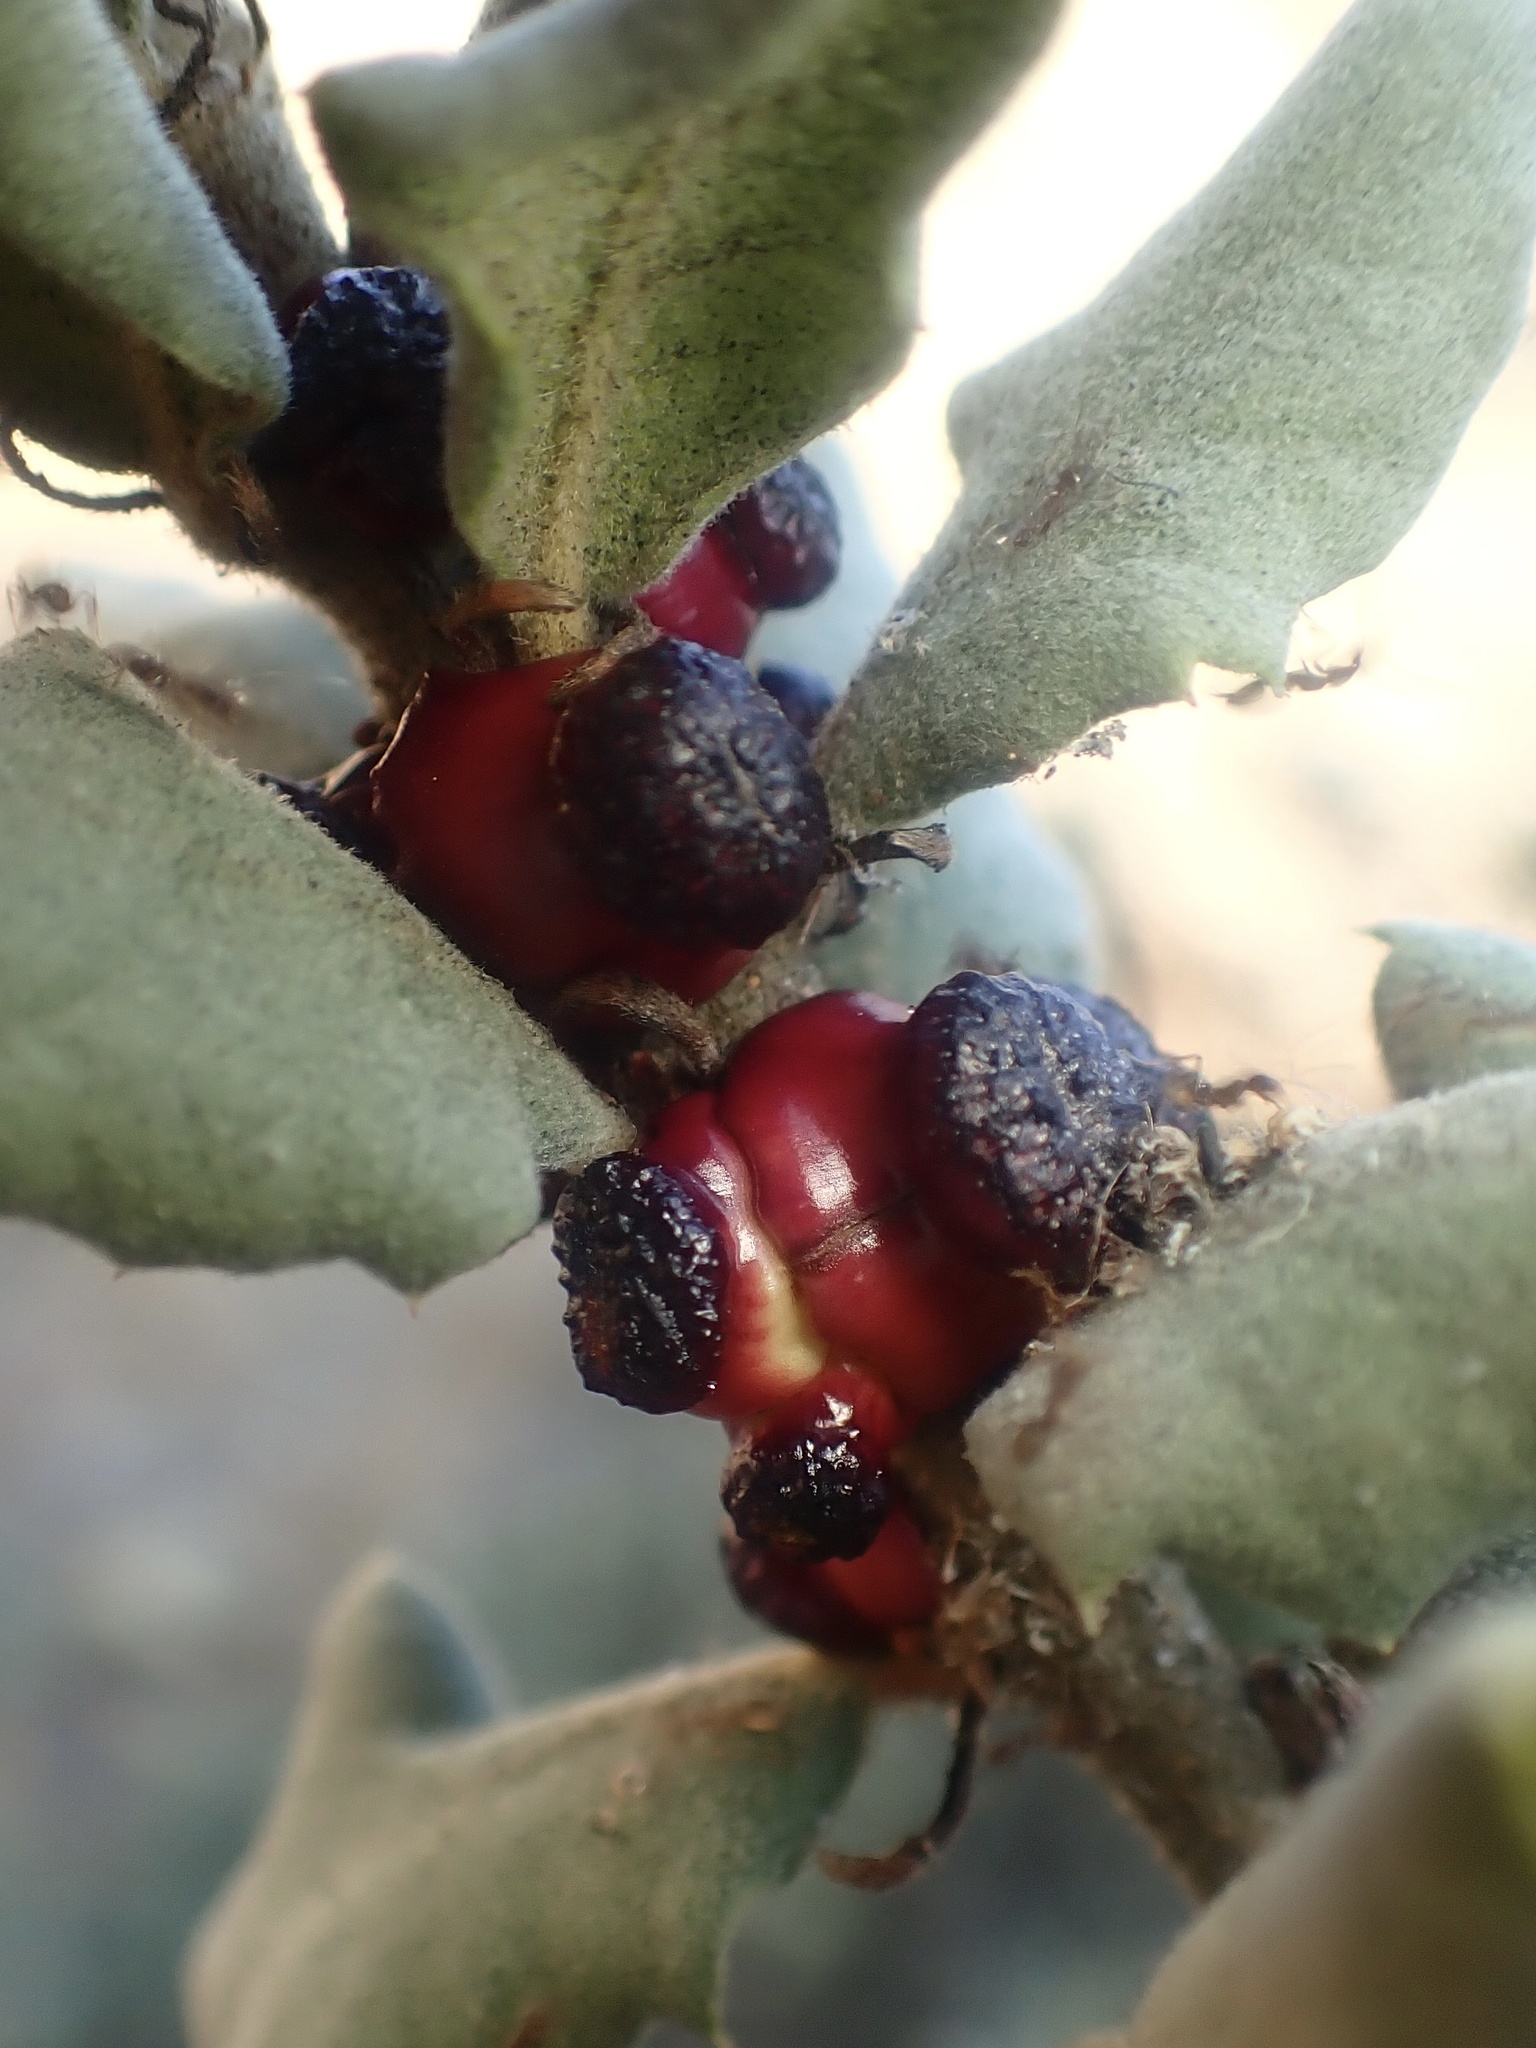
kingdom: Animalia
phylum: Arthropoda
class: Insecta
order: Hymenoptera
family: Cynipidae
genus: Disholcaspis
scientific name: Disholcaspis prehensa
